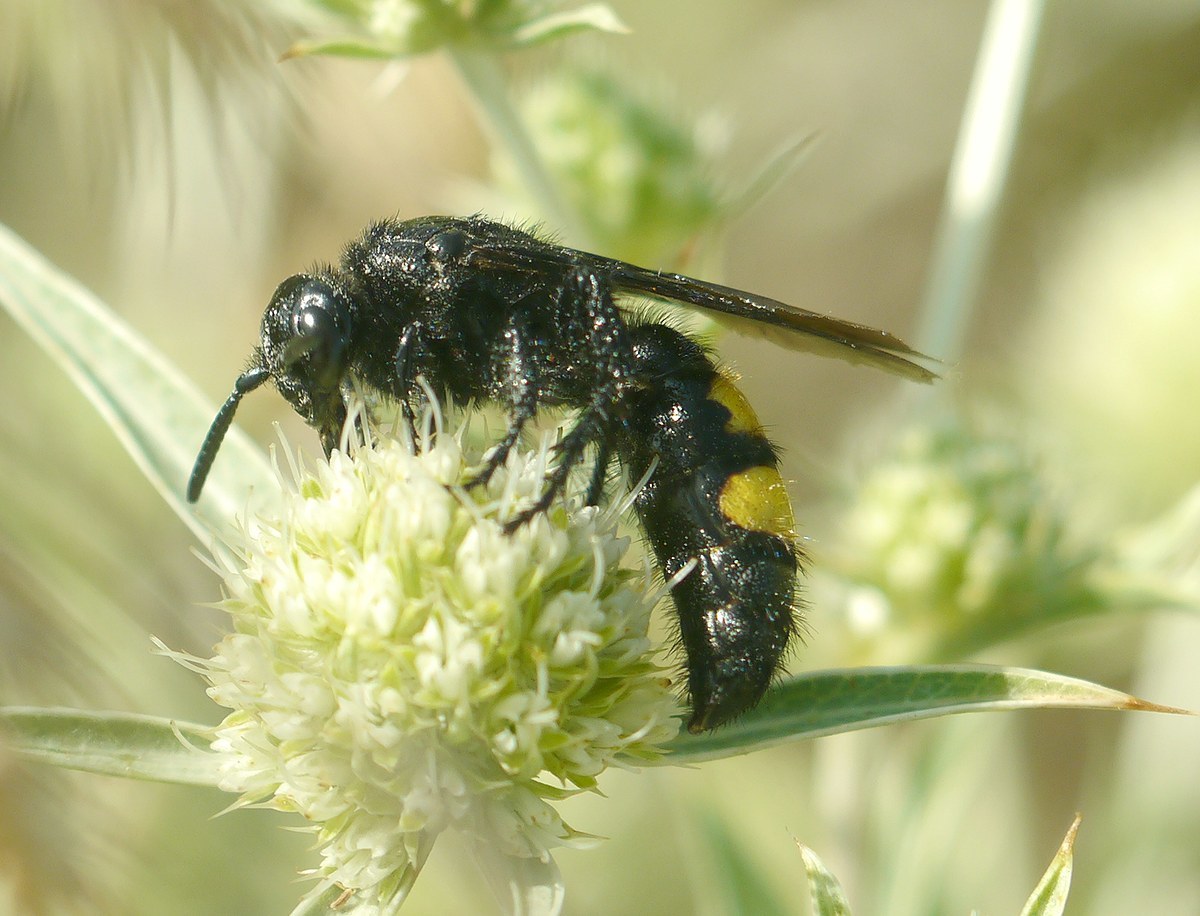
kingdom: Animalia
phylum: Arthropoda
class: Insecta
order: Hymenoptera
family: Scoliidae
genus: Scolia
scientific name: Scolia hirta
